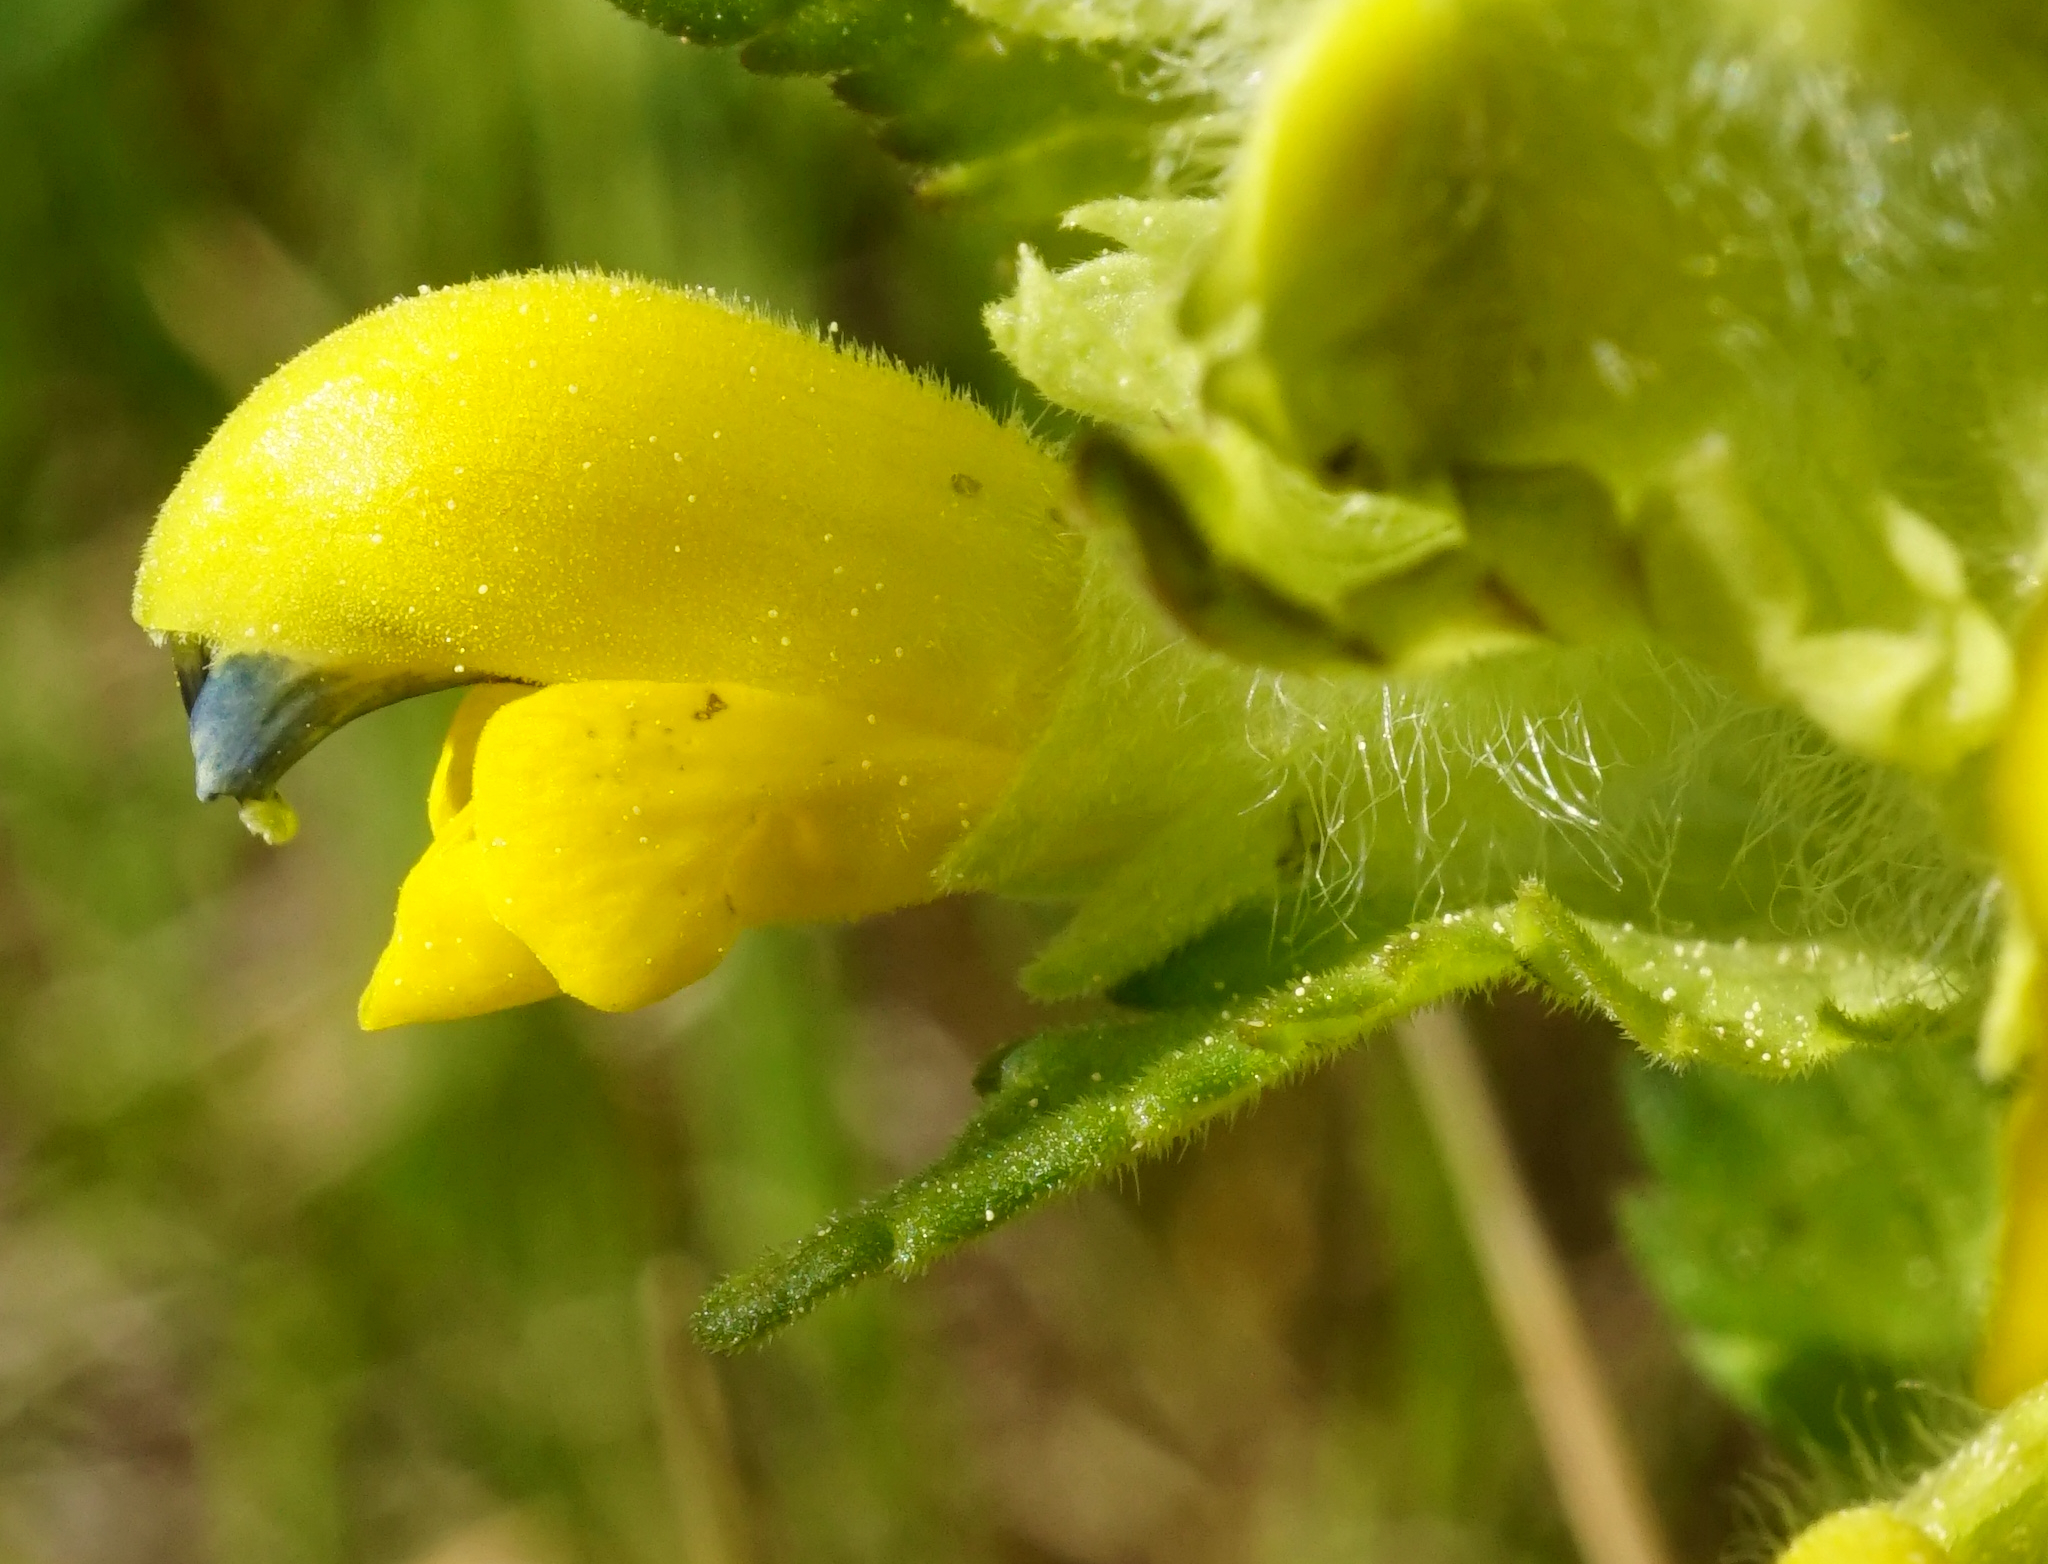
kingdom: Plantae
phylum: Tracheophyta
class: Magnoliopsida
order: Lamiales
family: Orobanchaceae
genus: Rhinanthus
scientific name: Rhinanthus alectorolophus
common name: Greater yellow-rattle
